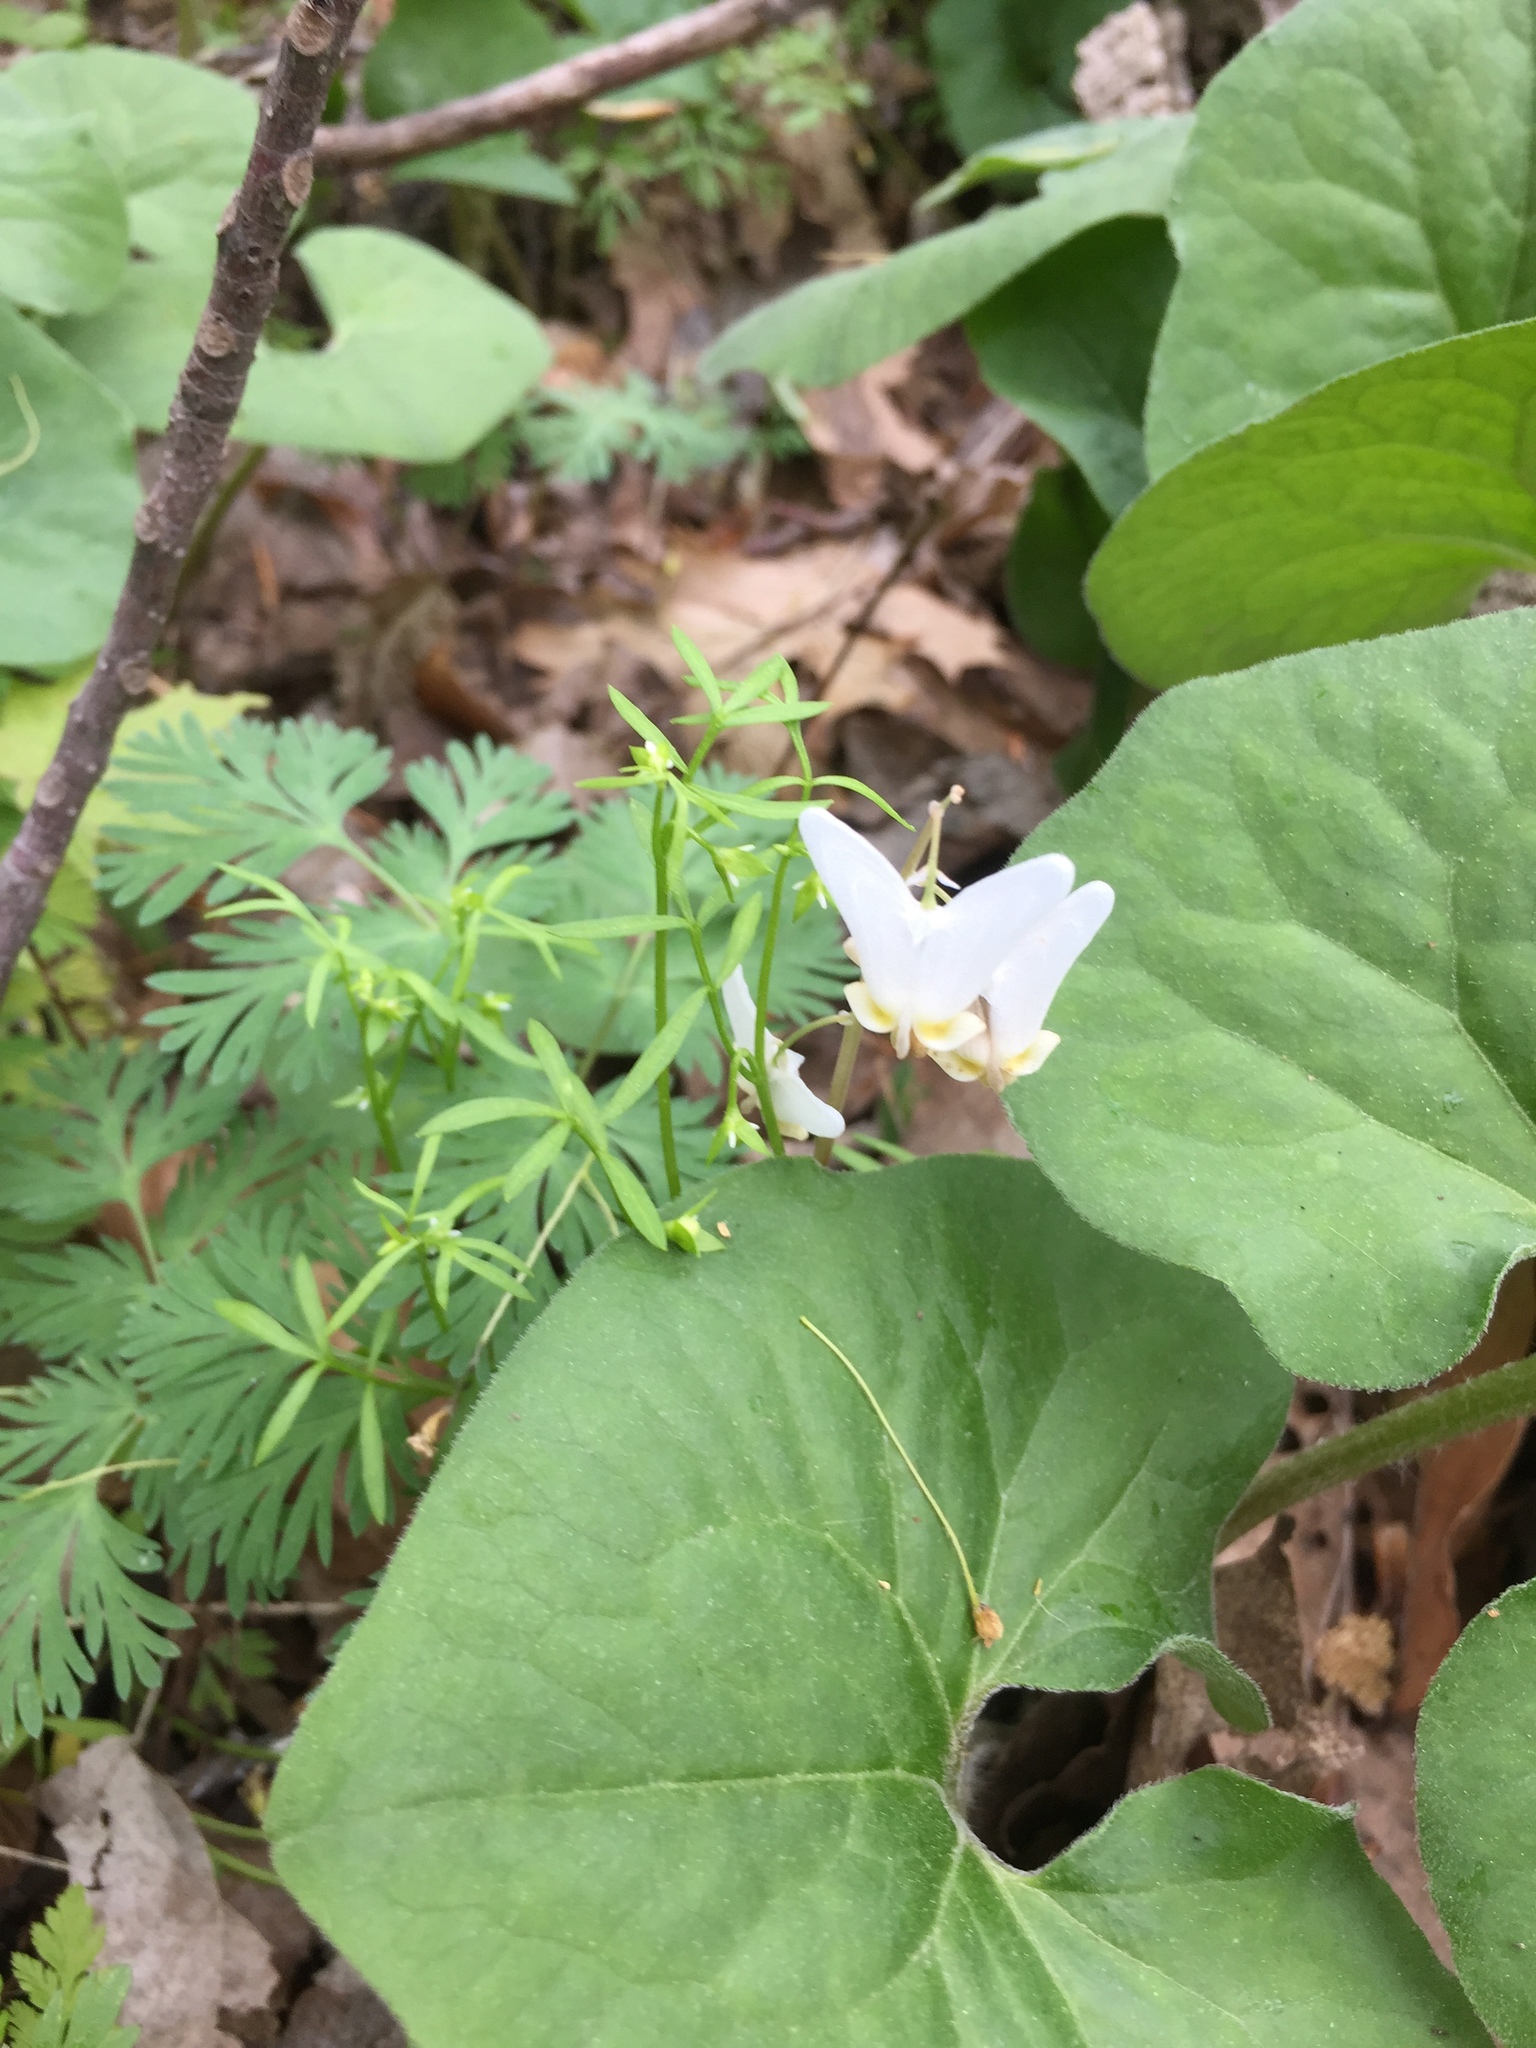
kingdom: Plantae
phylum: Tracheophyta
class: Magnoliopsida
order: Ranunculales
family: Papaveraceae
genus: Dicentra
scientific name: Dicentra cucullaria
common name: Dutchman's breeches
